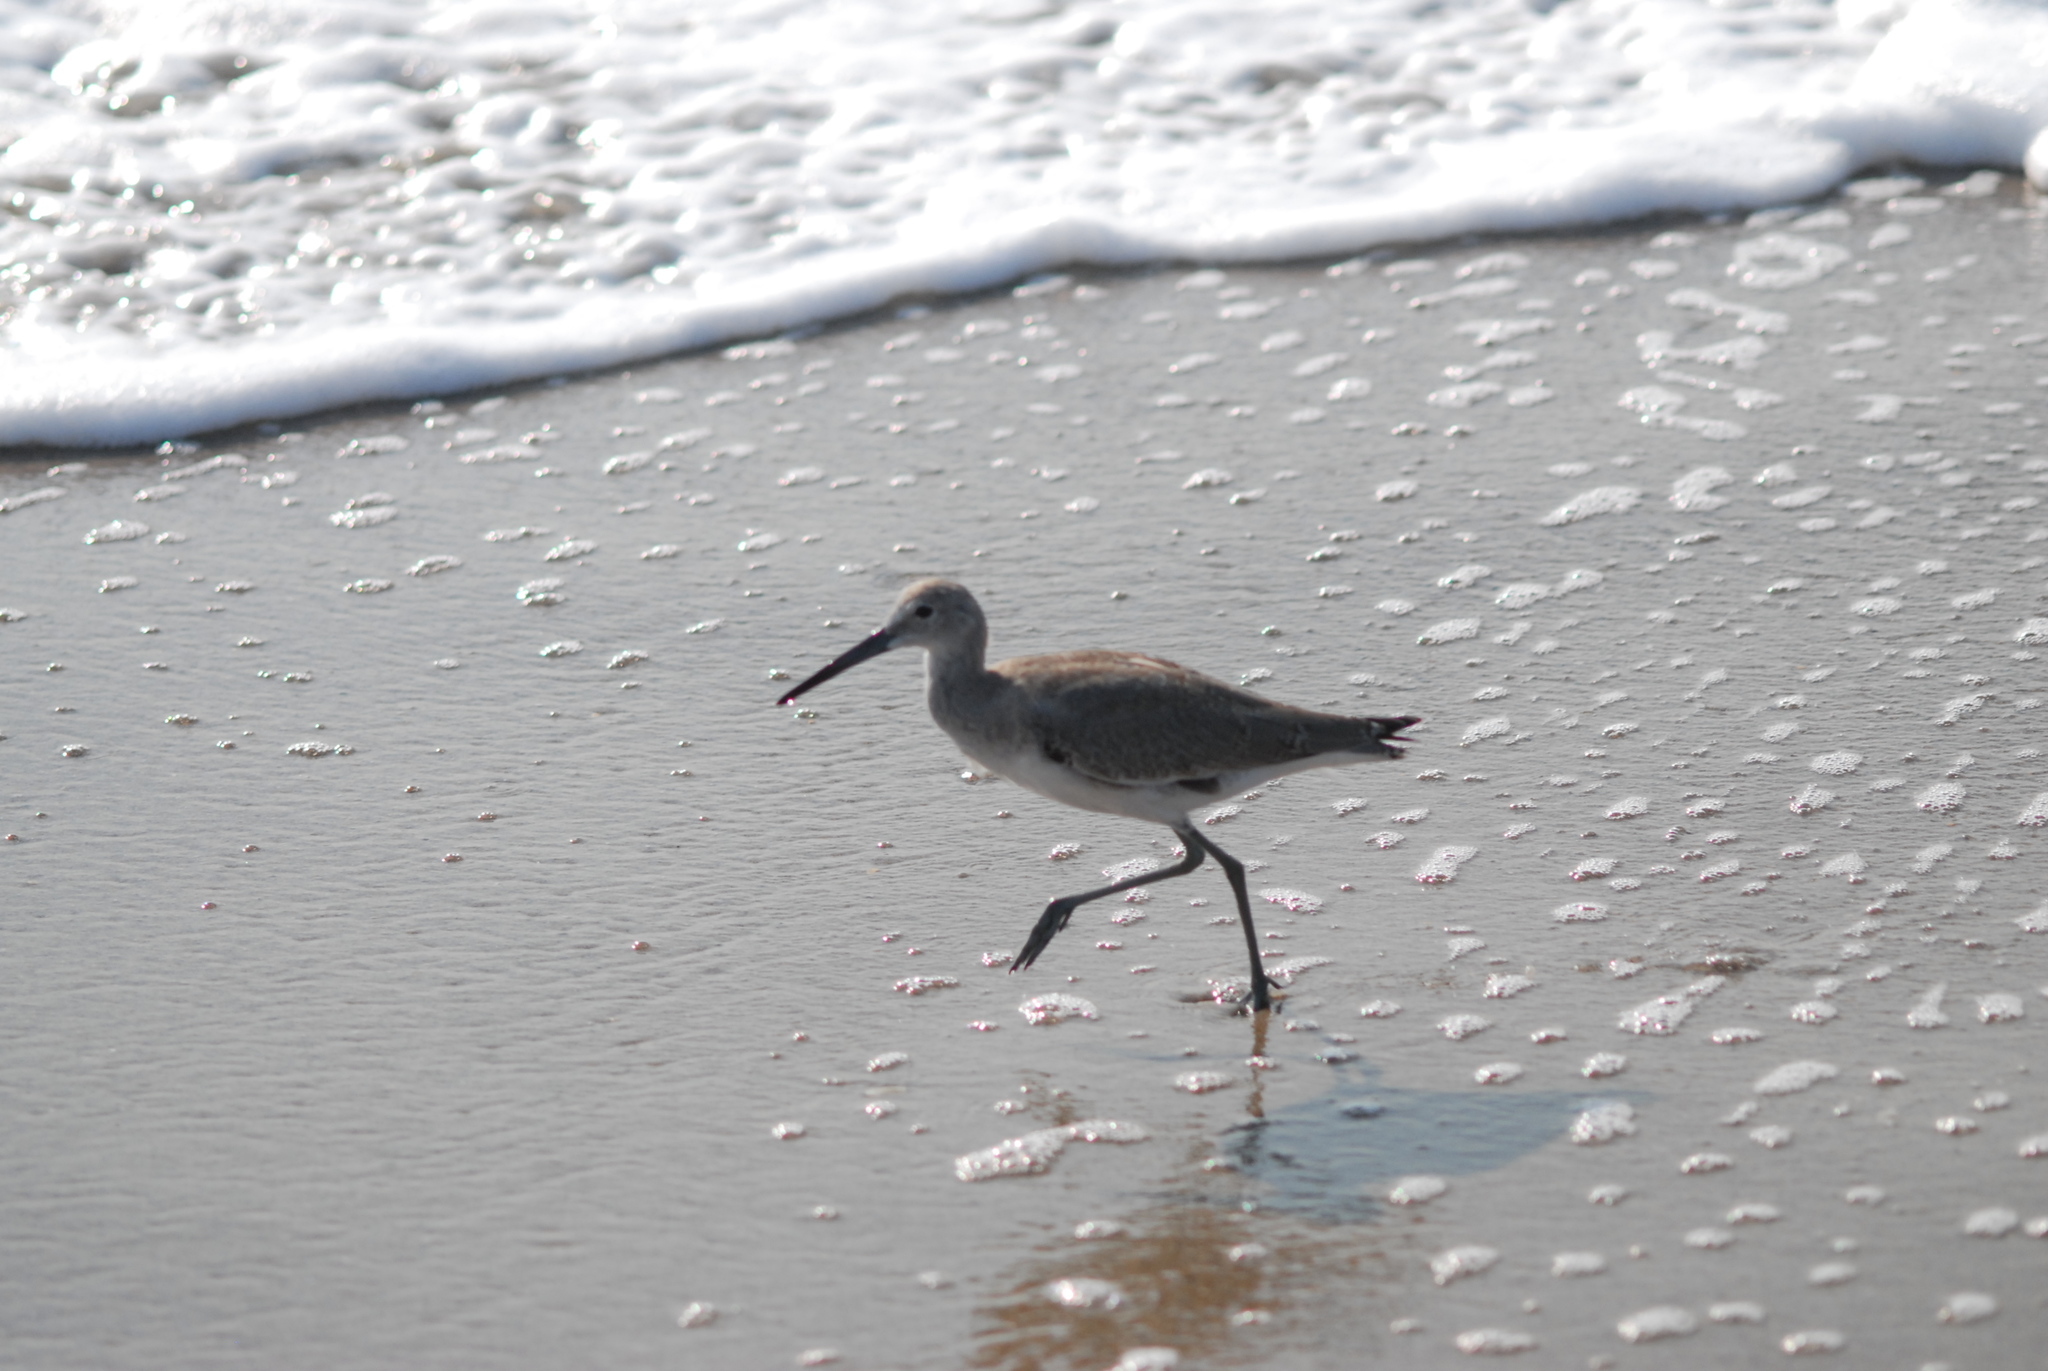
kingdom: Animalia
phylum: Chordata
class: Aves
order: Charadriiformes
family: Scolopacidae
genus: Tringa
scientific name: Tringa semipalmata
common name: Willet
